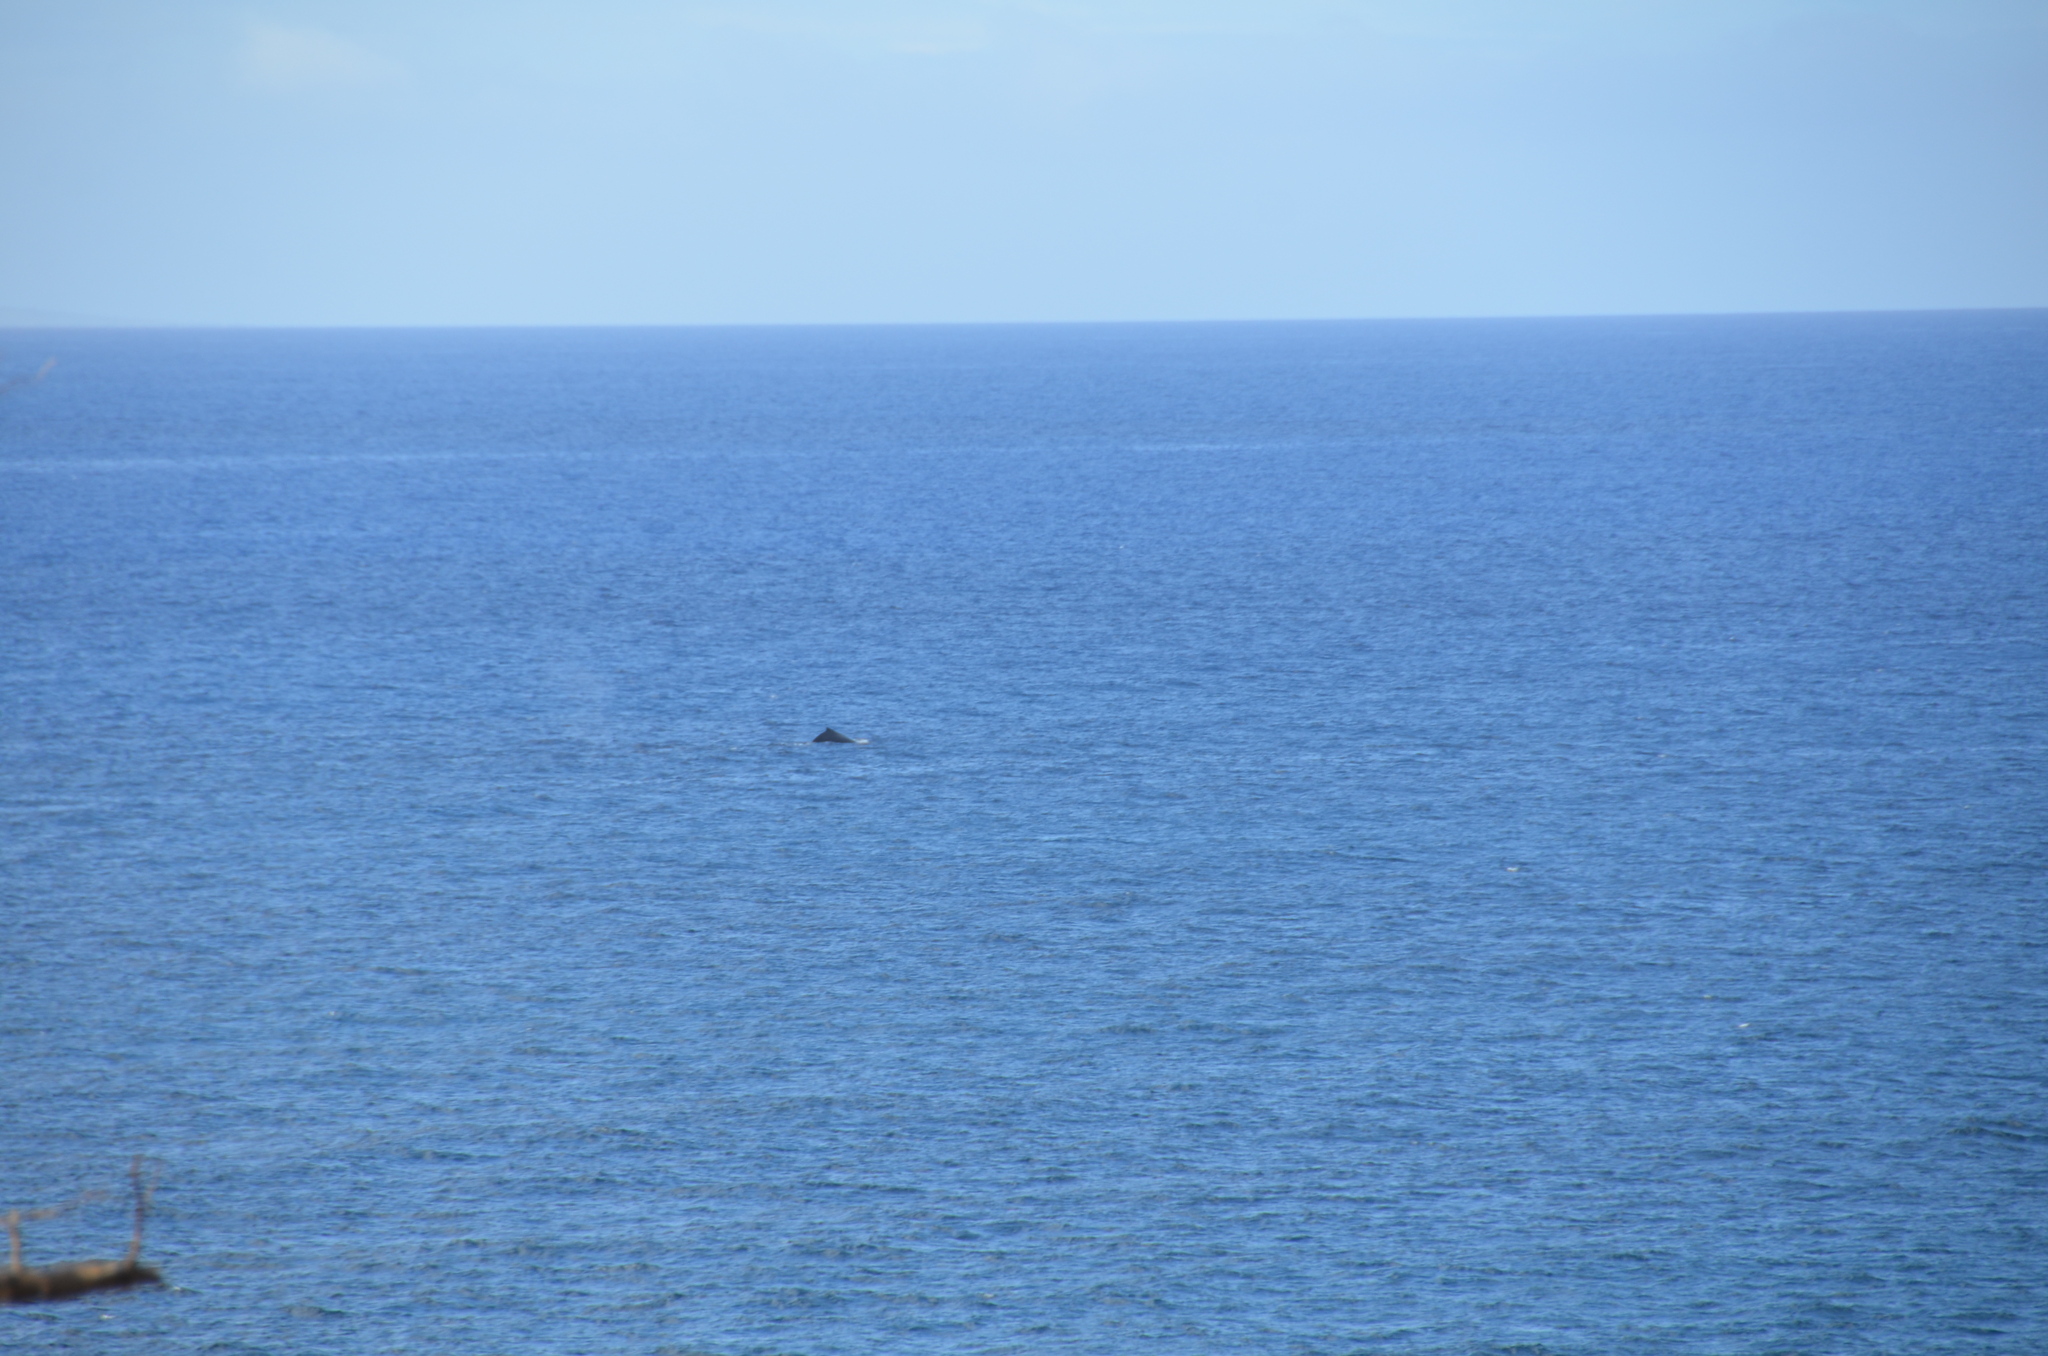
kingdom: Animalia
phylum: Chordata
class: Mammalia
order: Cetacea
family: Balaenopteridae
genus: Megaptera
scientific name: Megaptera novaeangliae
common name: Humpback whale
